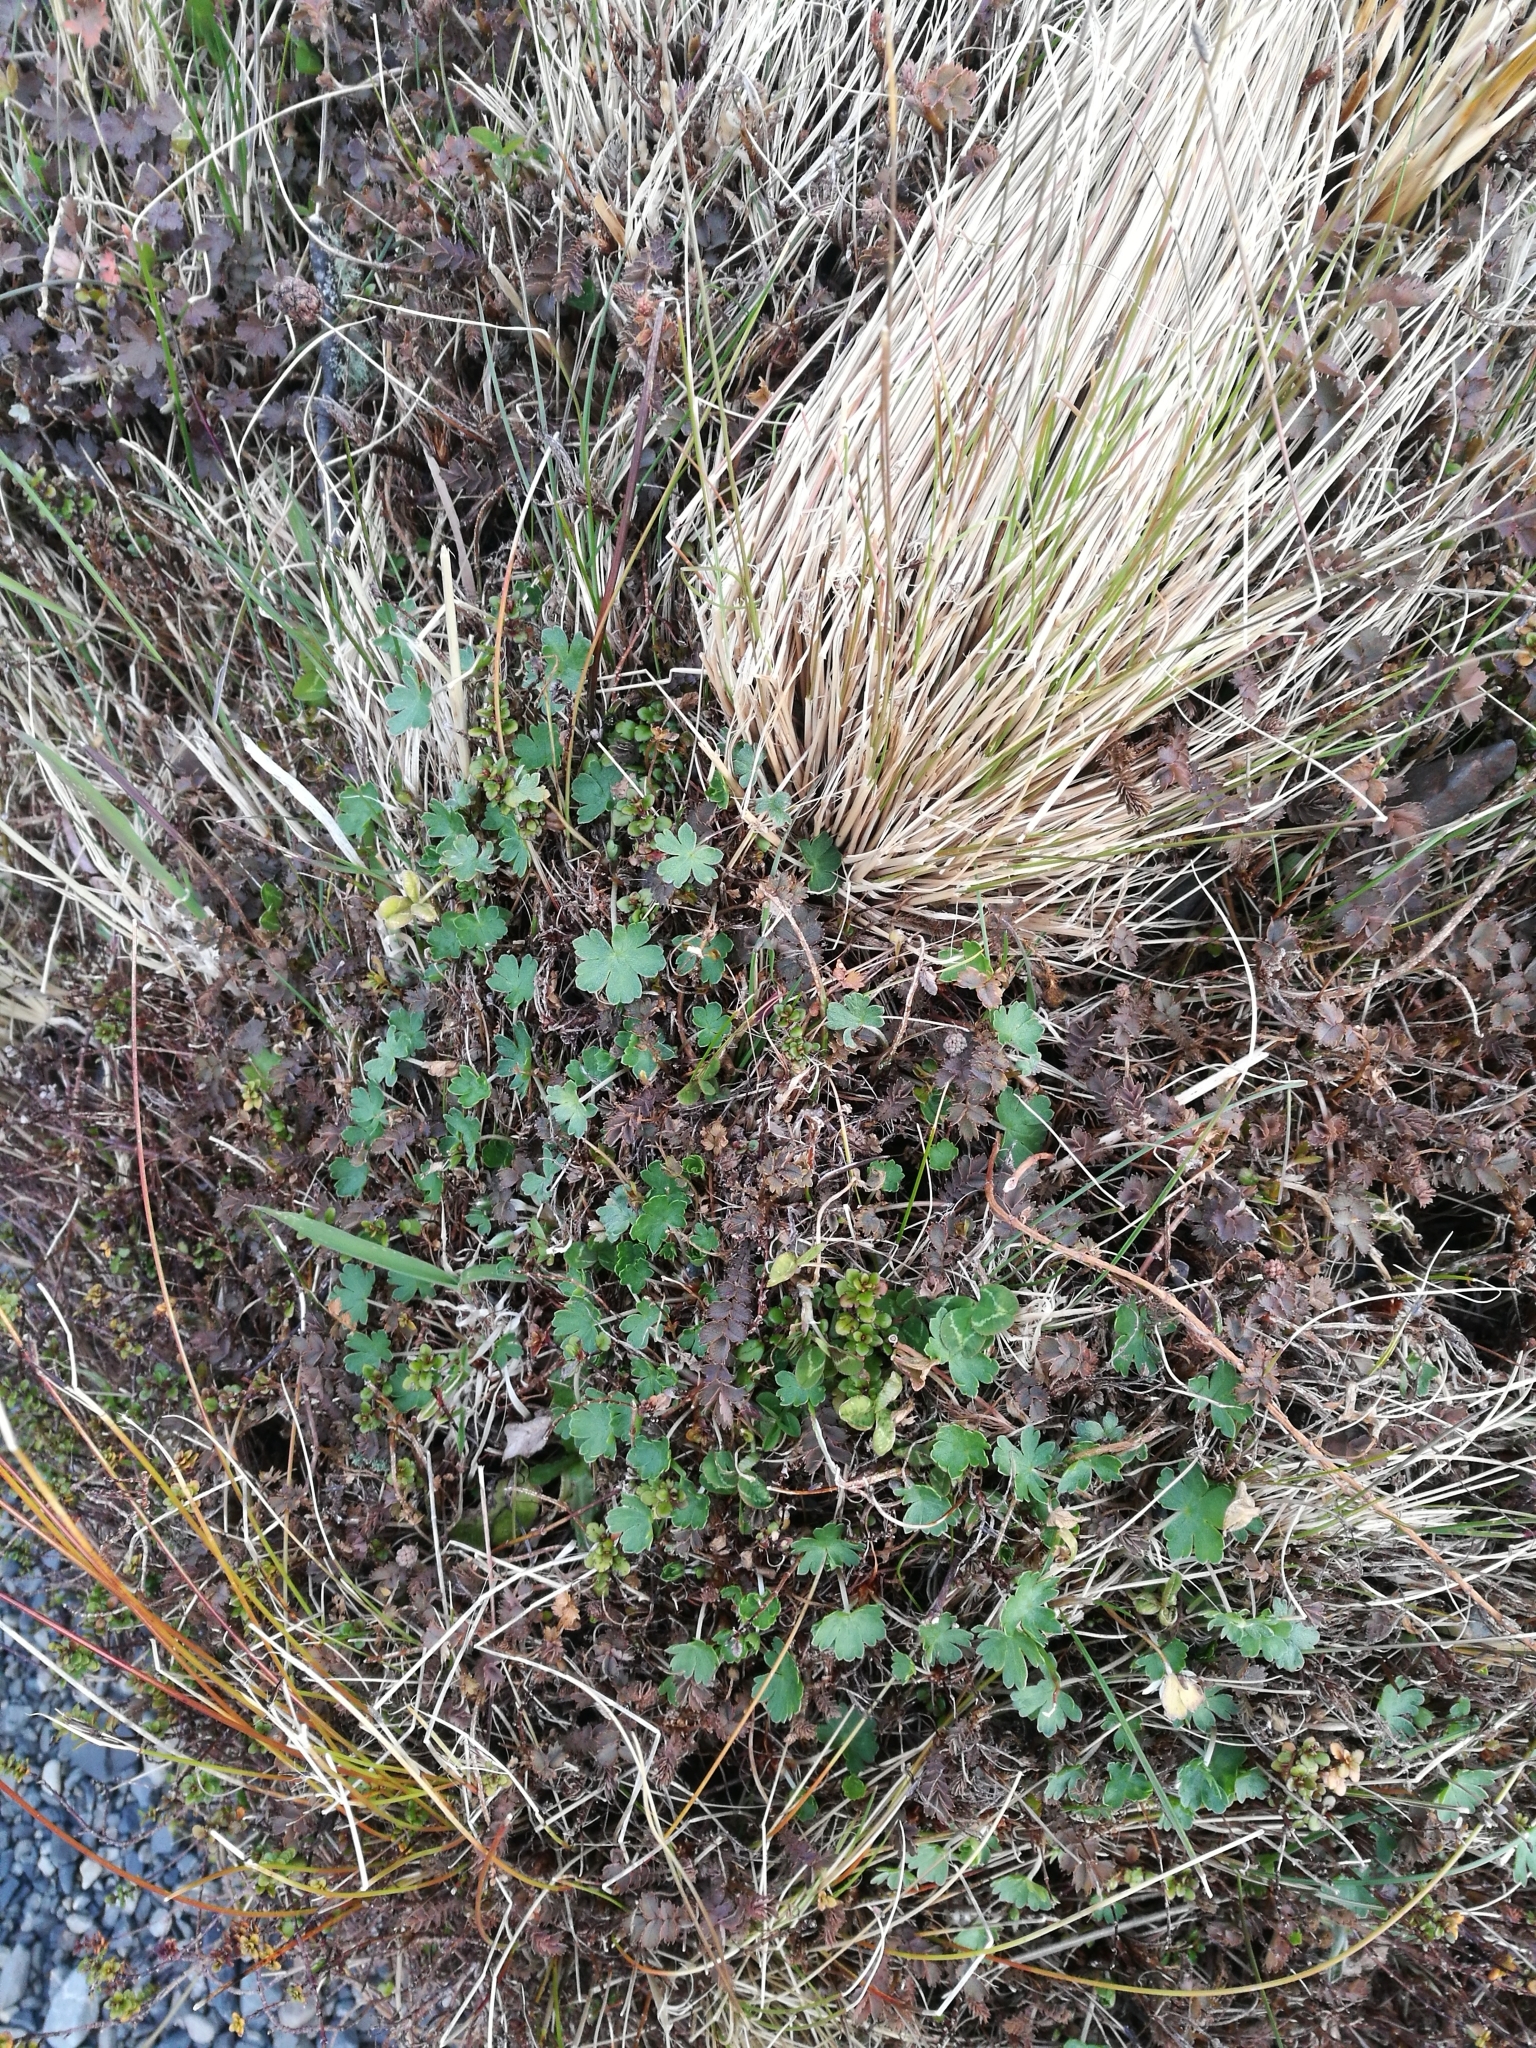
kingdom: Plantae
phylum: Tracheophyta
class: Magnoliopsida
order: Geraniales
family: Geraniaceae
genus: Geranium
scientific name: Geranium brevicaule
